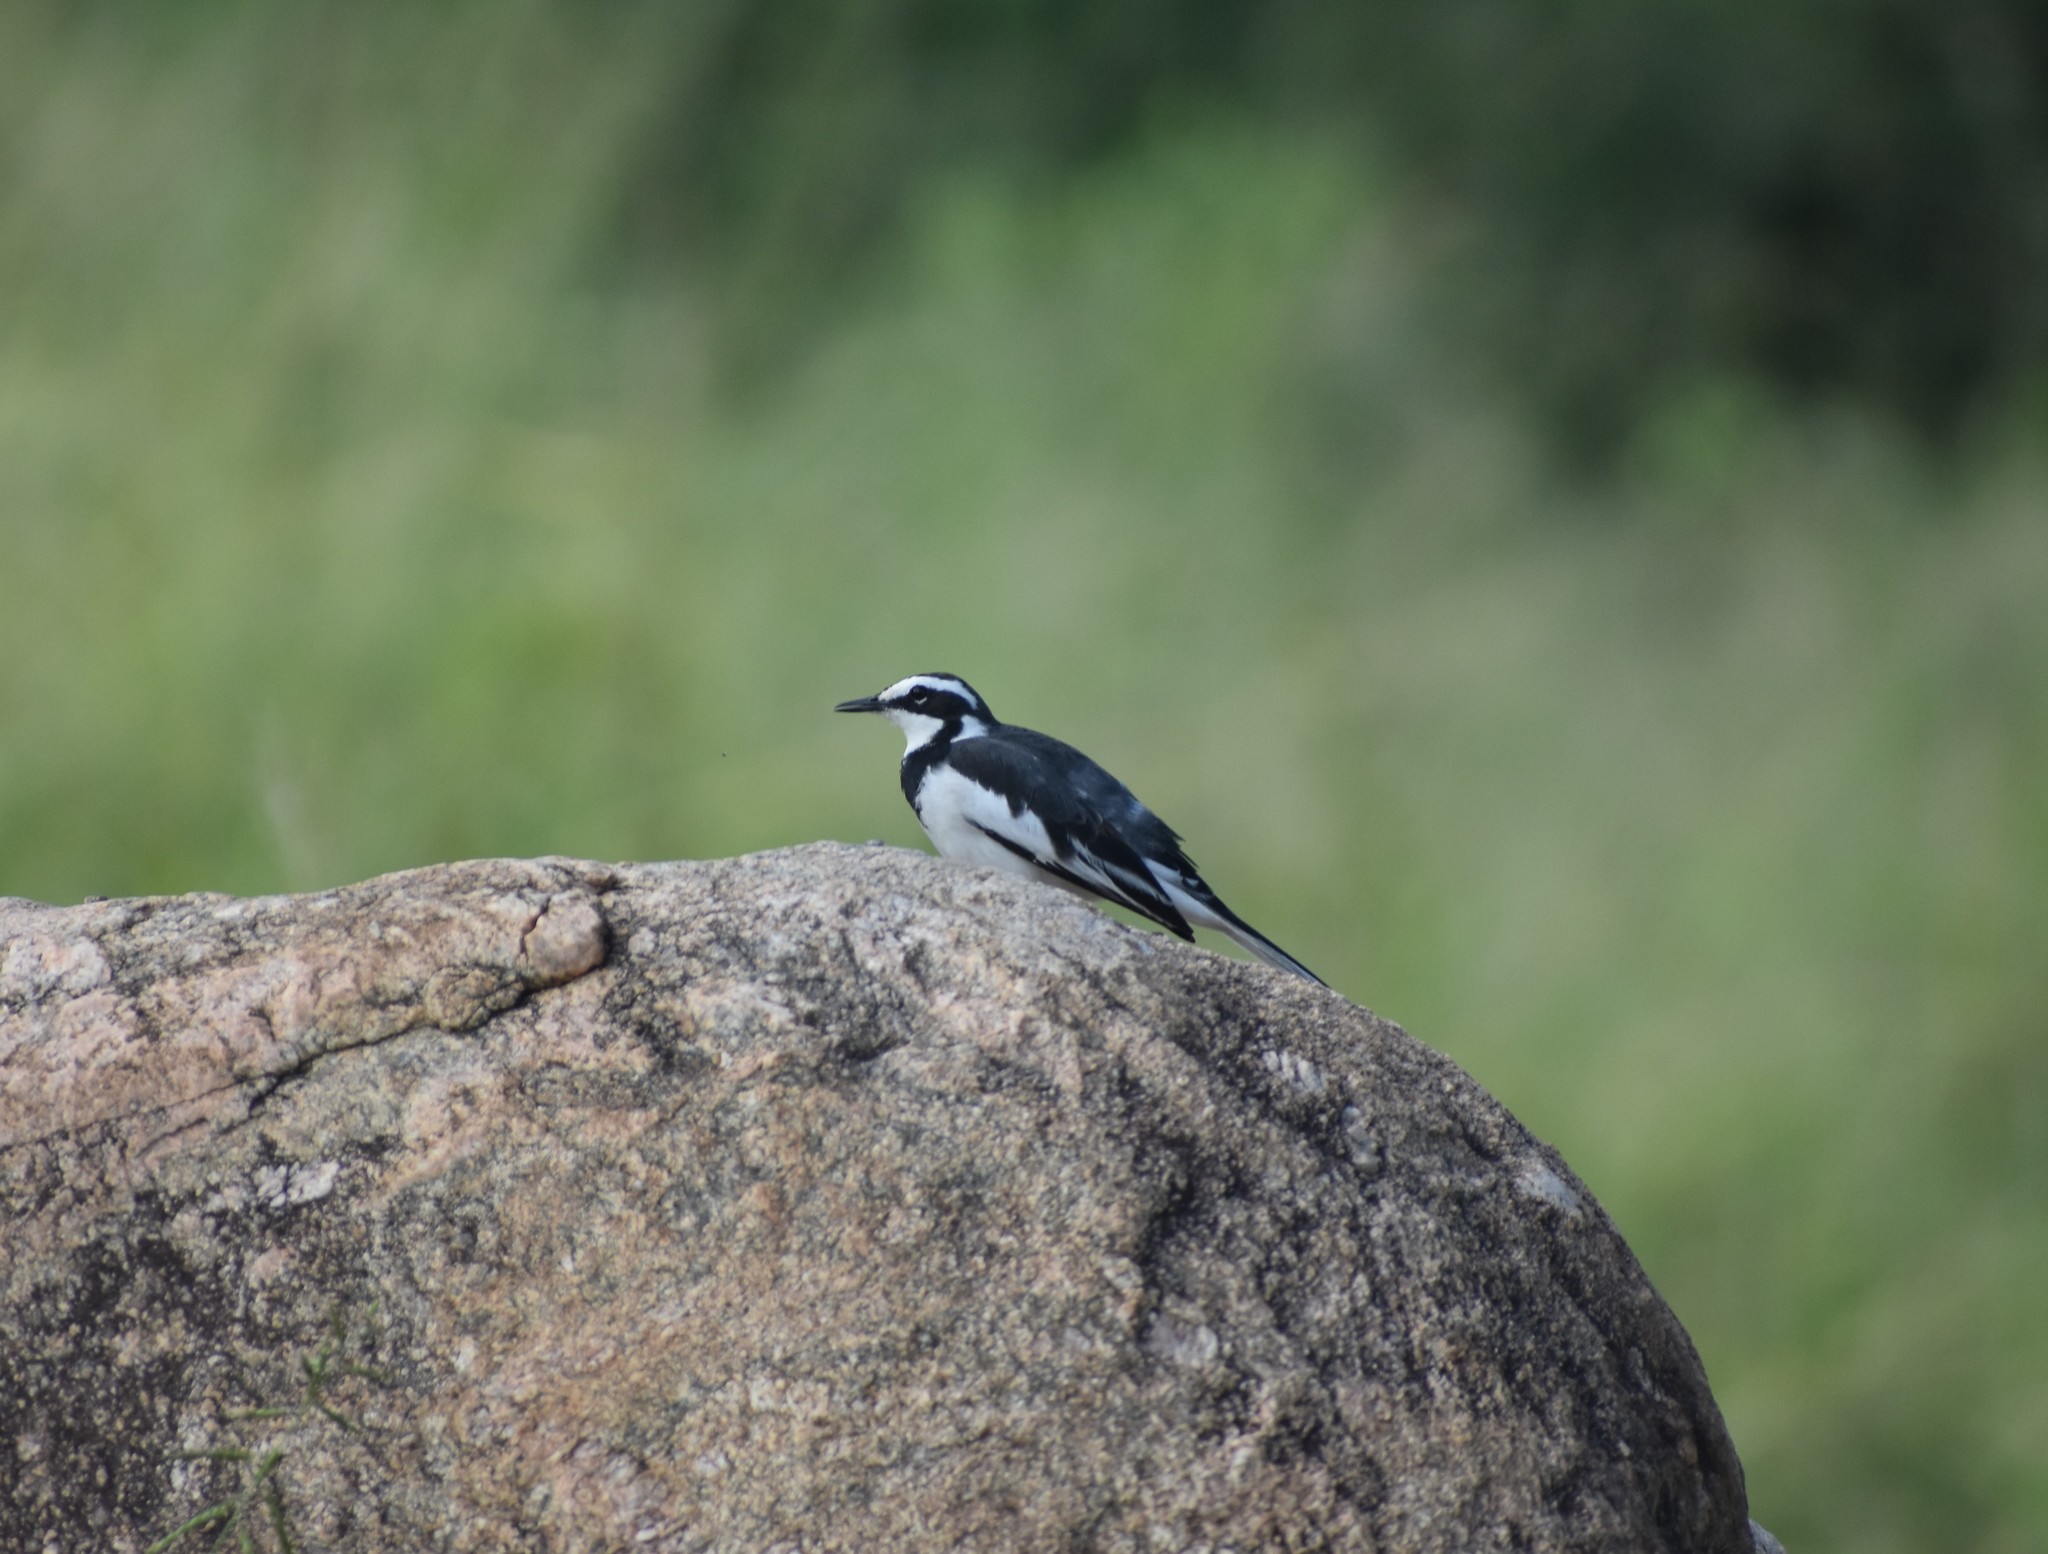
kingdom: Animalia
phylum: Chordata
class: Aves
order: Passeriformes
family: Motacillidae
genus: Motacilla
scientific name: Motacilla aguimp
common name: African pied wagtail
